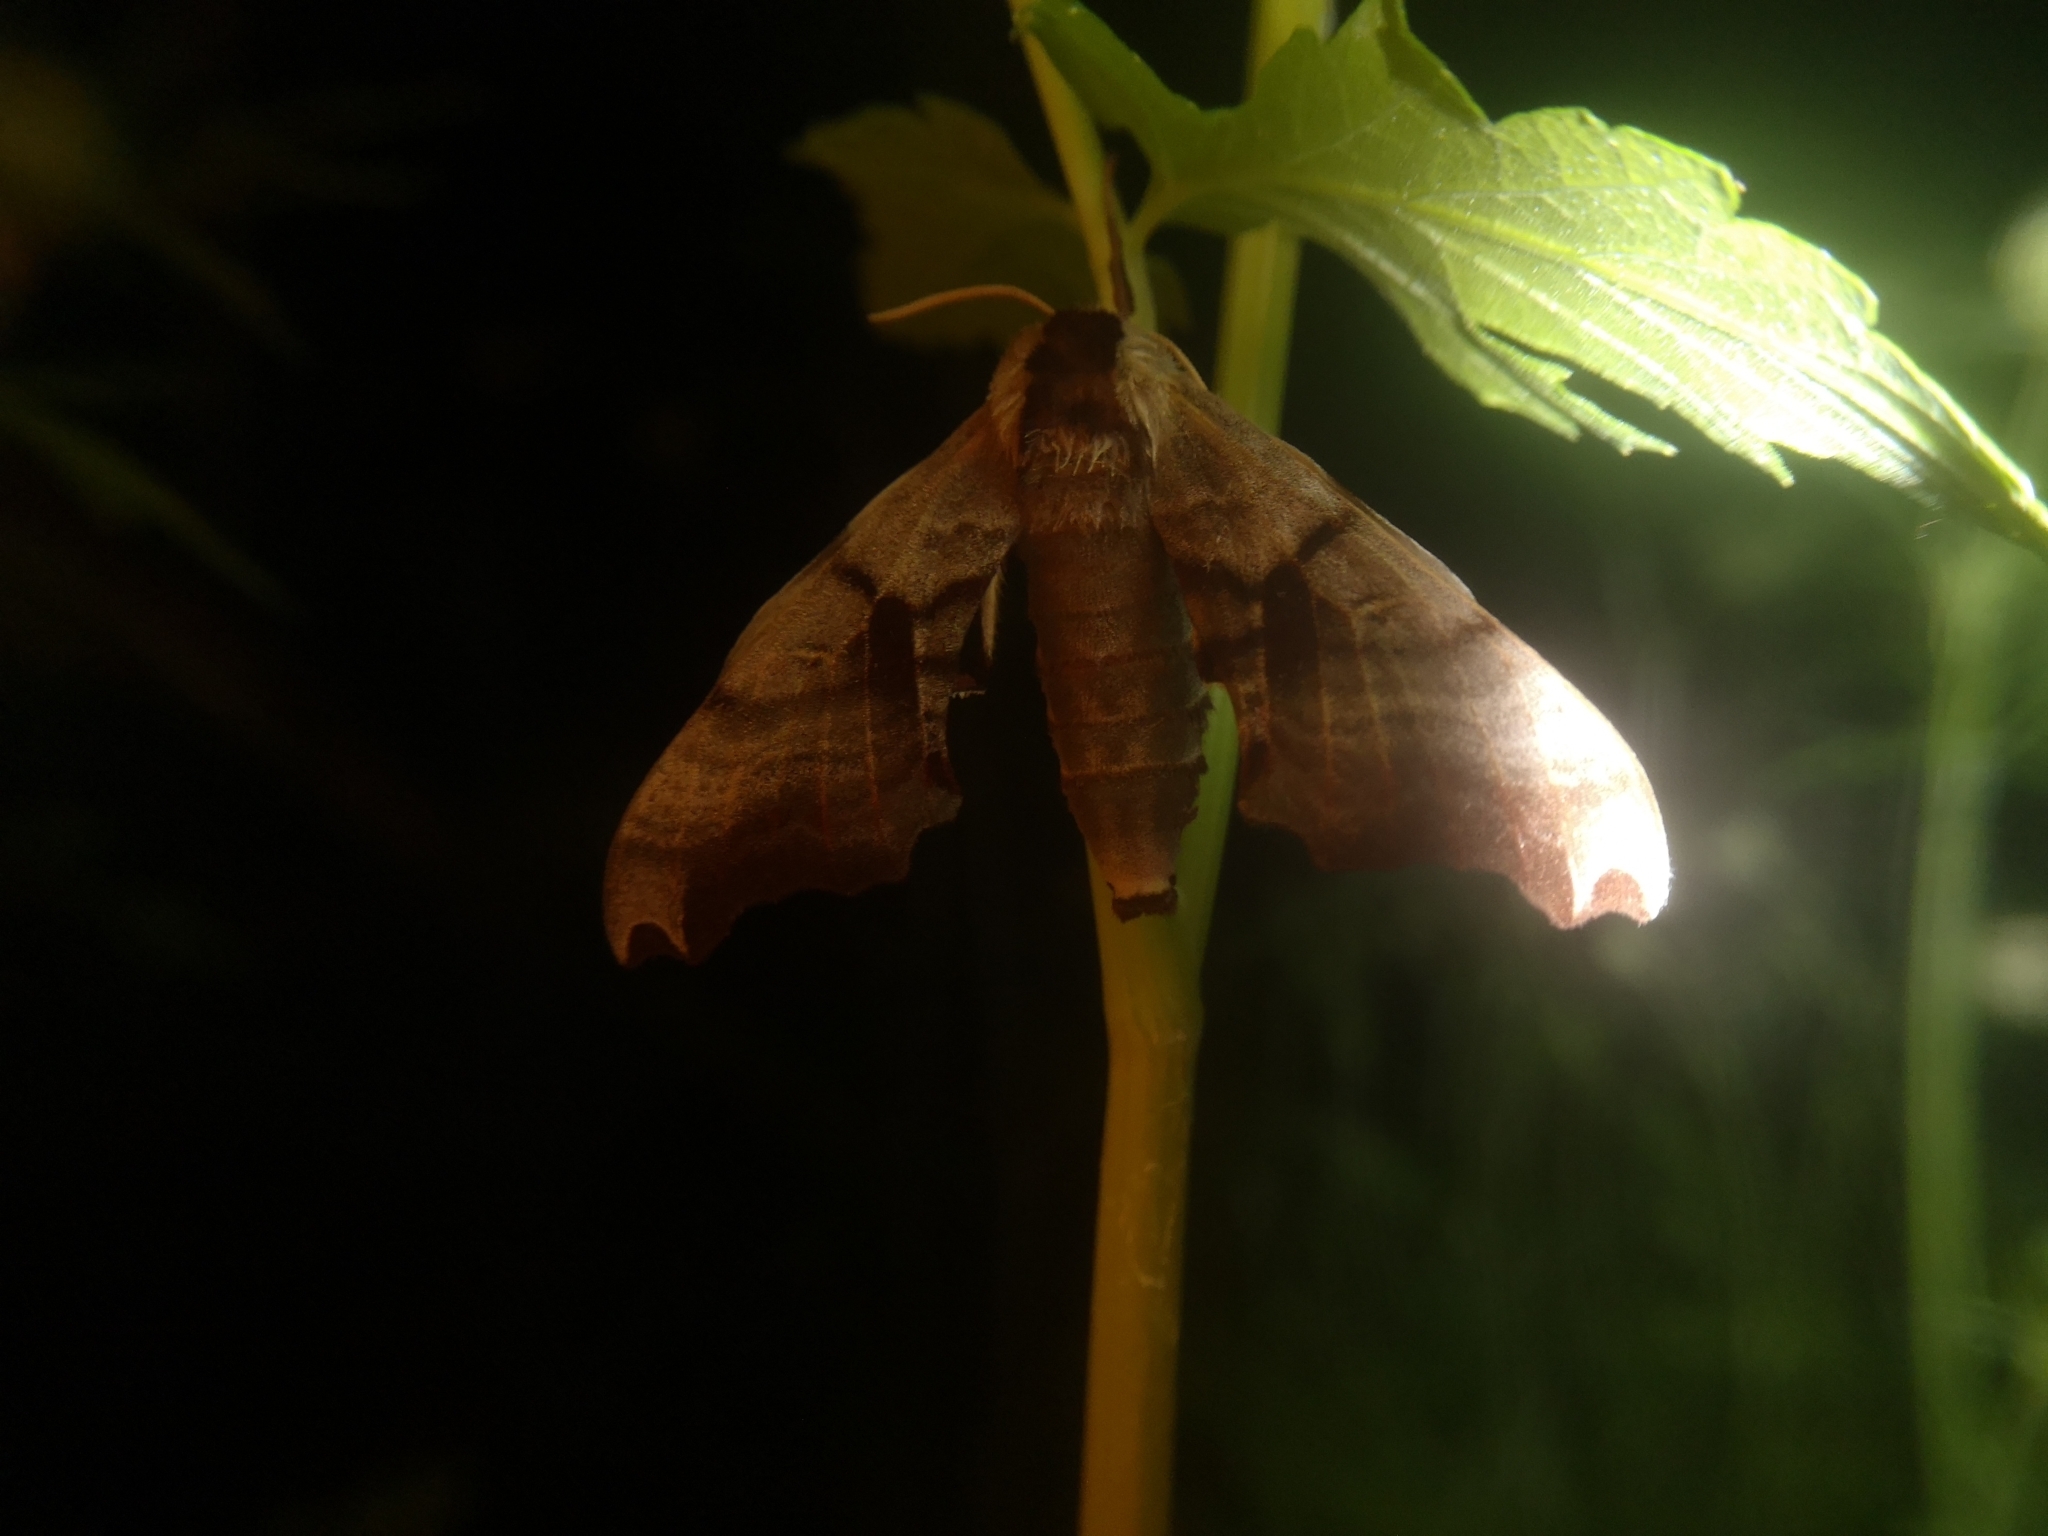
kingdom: Animalia
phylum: Arthropoda
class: Insecta
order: Lepidoptera
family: Sphingidae
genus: Smerinthus
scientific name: Smerinthus jamaicensis
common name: Twin spotted sphinx
